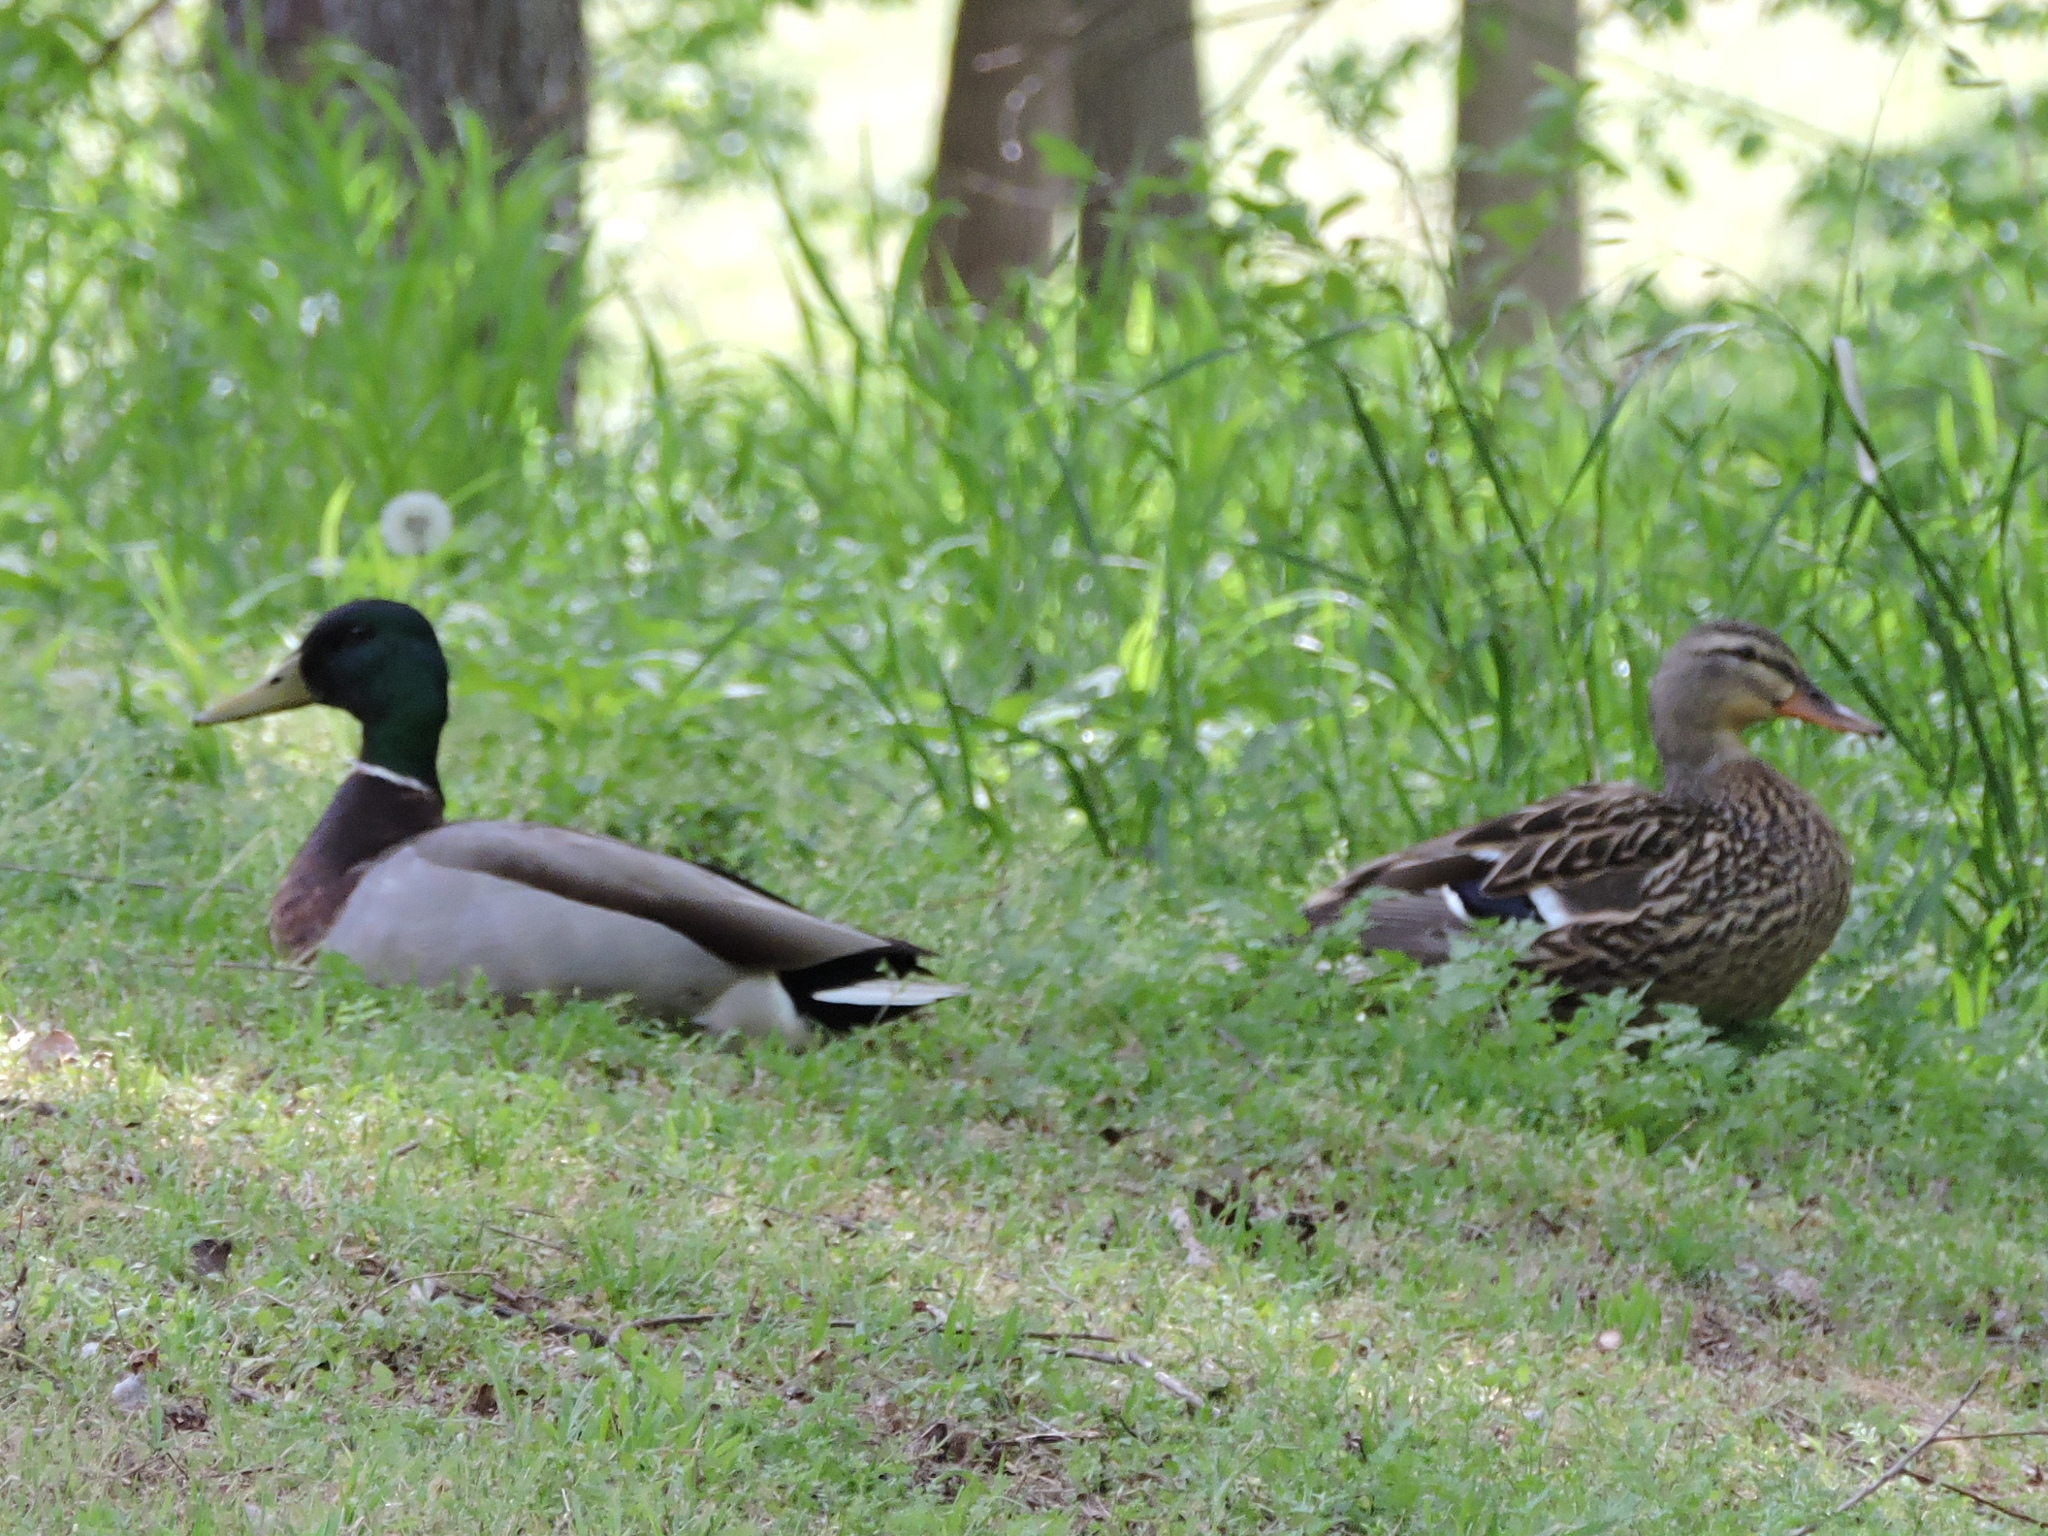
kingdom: Animalia
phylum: Chordata
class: Aves
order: Anseriformes
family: Anatidae
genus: Anas
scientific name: Anas platyrhynchos
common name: Mallard
